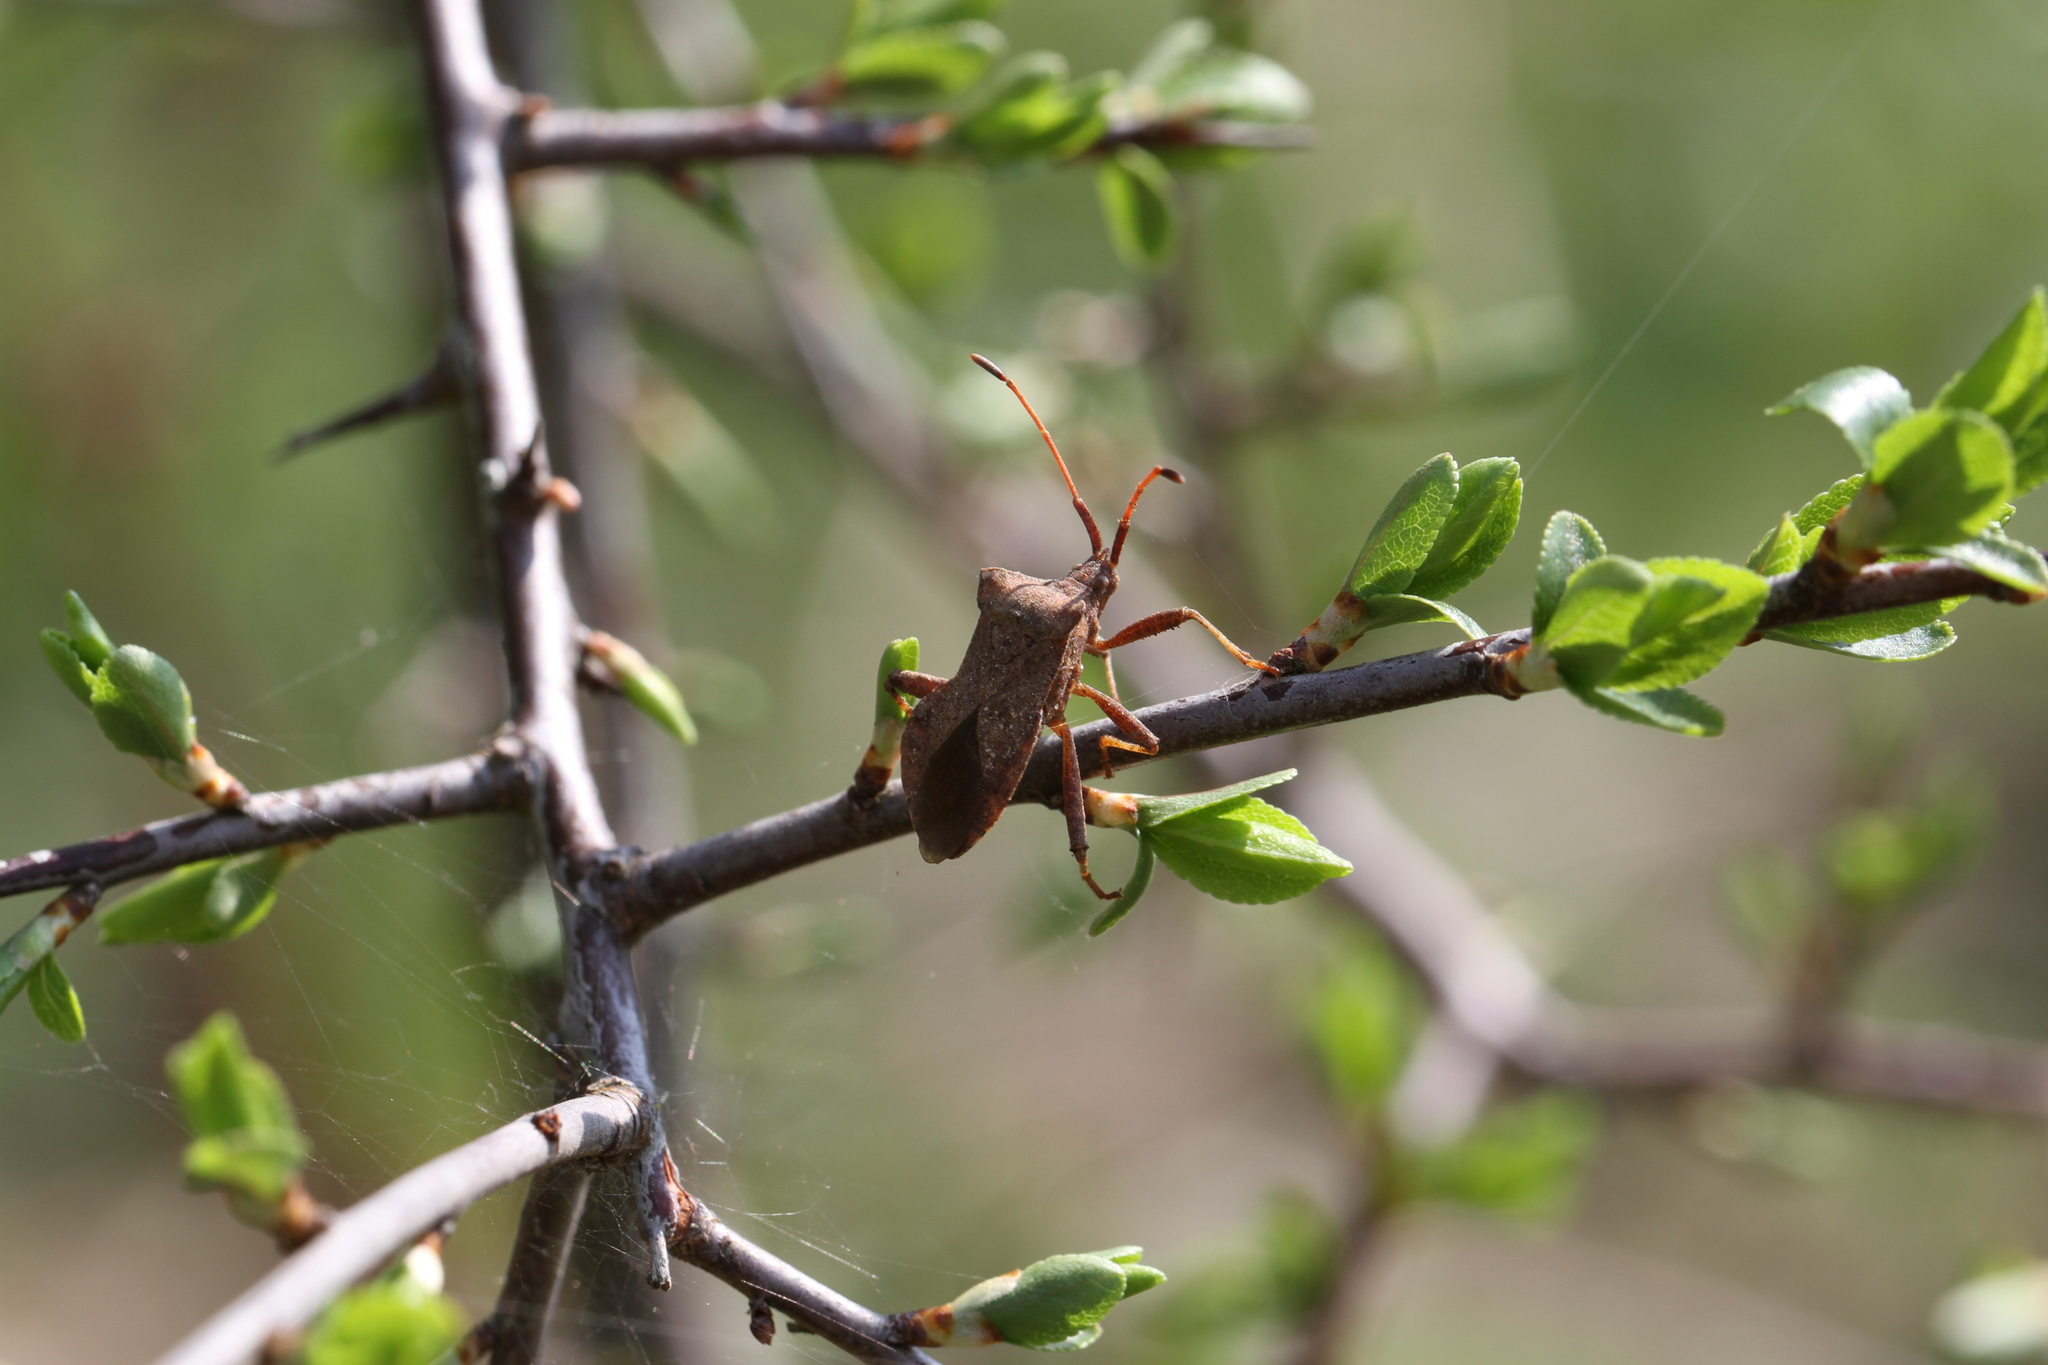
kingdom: Animalia
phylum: Arthropoda
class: Insecta
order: Hemiptera
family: Coreidae
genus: Coreus
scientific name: Coreus marginatus
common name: Dock bug
